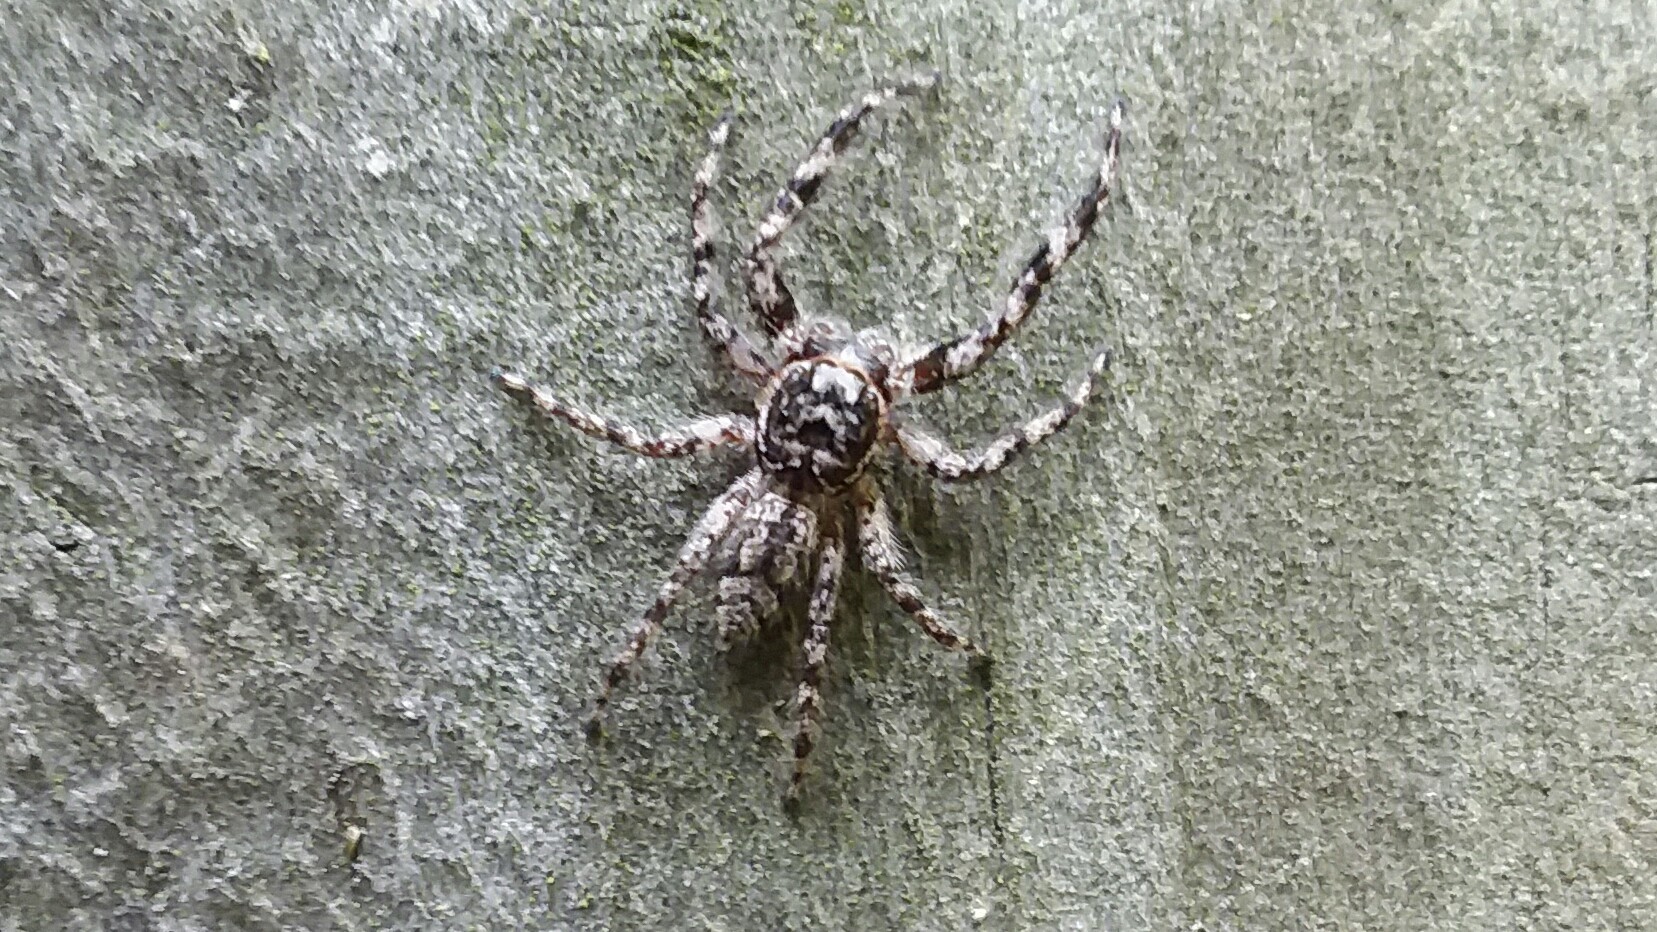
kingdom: Animalia
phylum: Arthropoda
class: Arachnida
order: Araneae
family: Salticidae
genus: Platycryptus
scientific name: Platycryptus undatus
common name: Tan jumping spider
